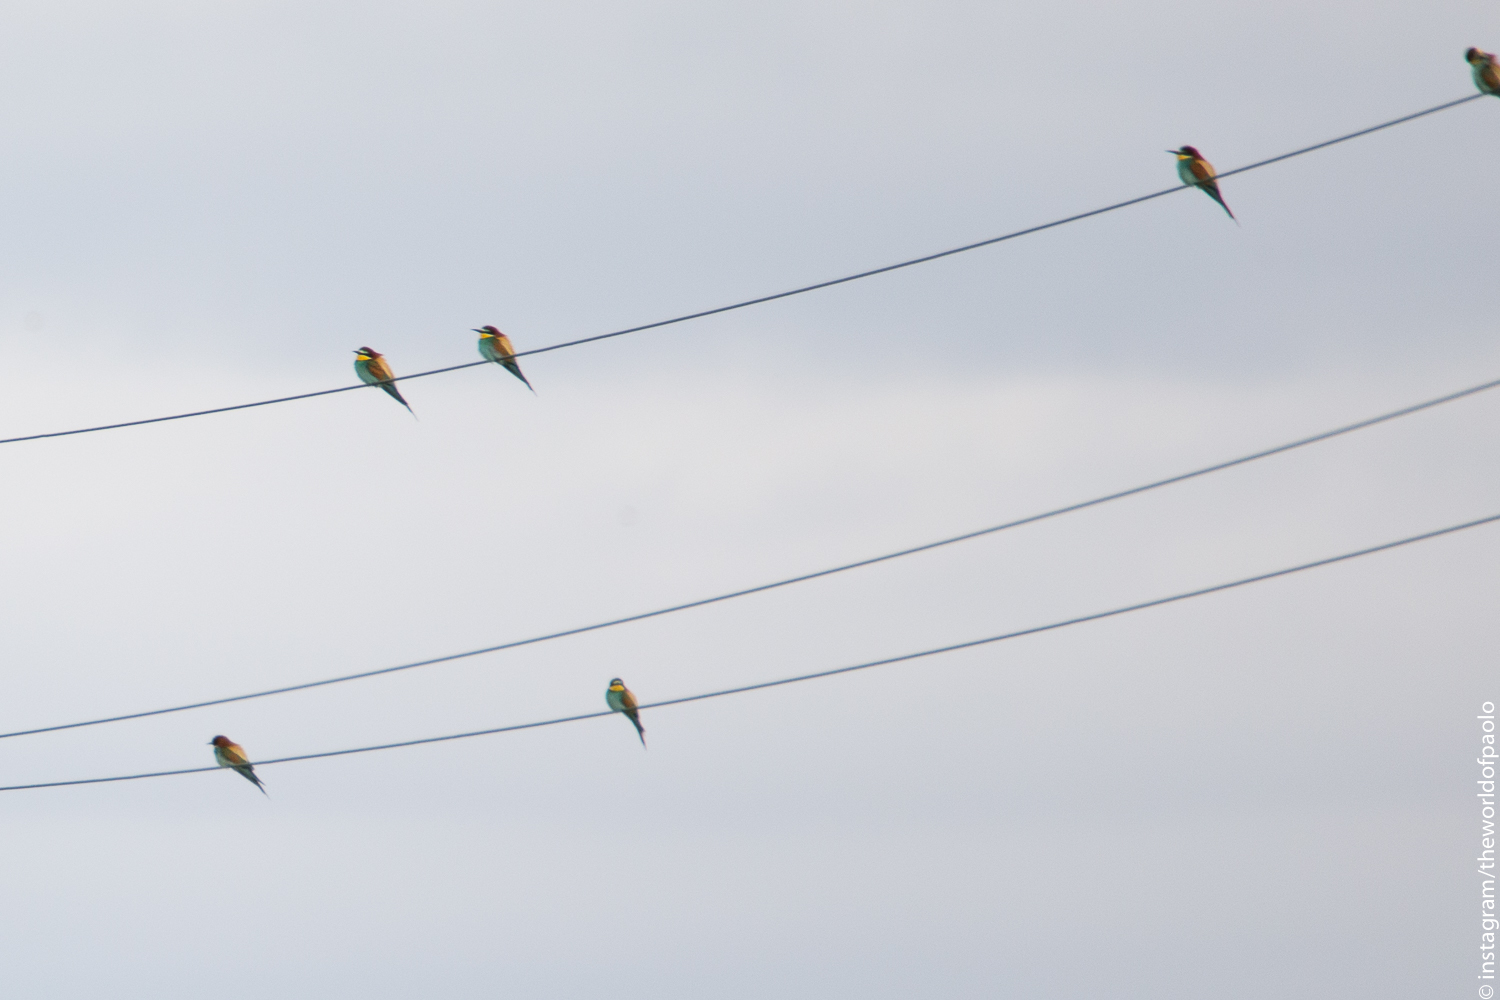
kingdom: Animalia
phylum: Chordata
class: Aves
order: Coraciiformes
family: Meropidae
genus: Merops
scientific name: Merops apiaster
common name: European bee-eater
